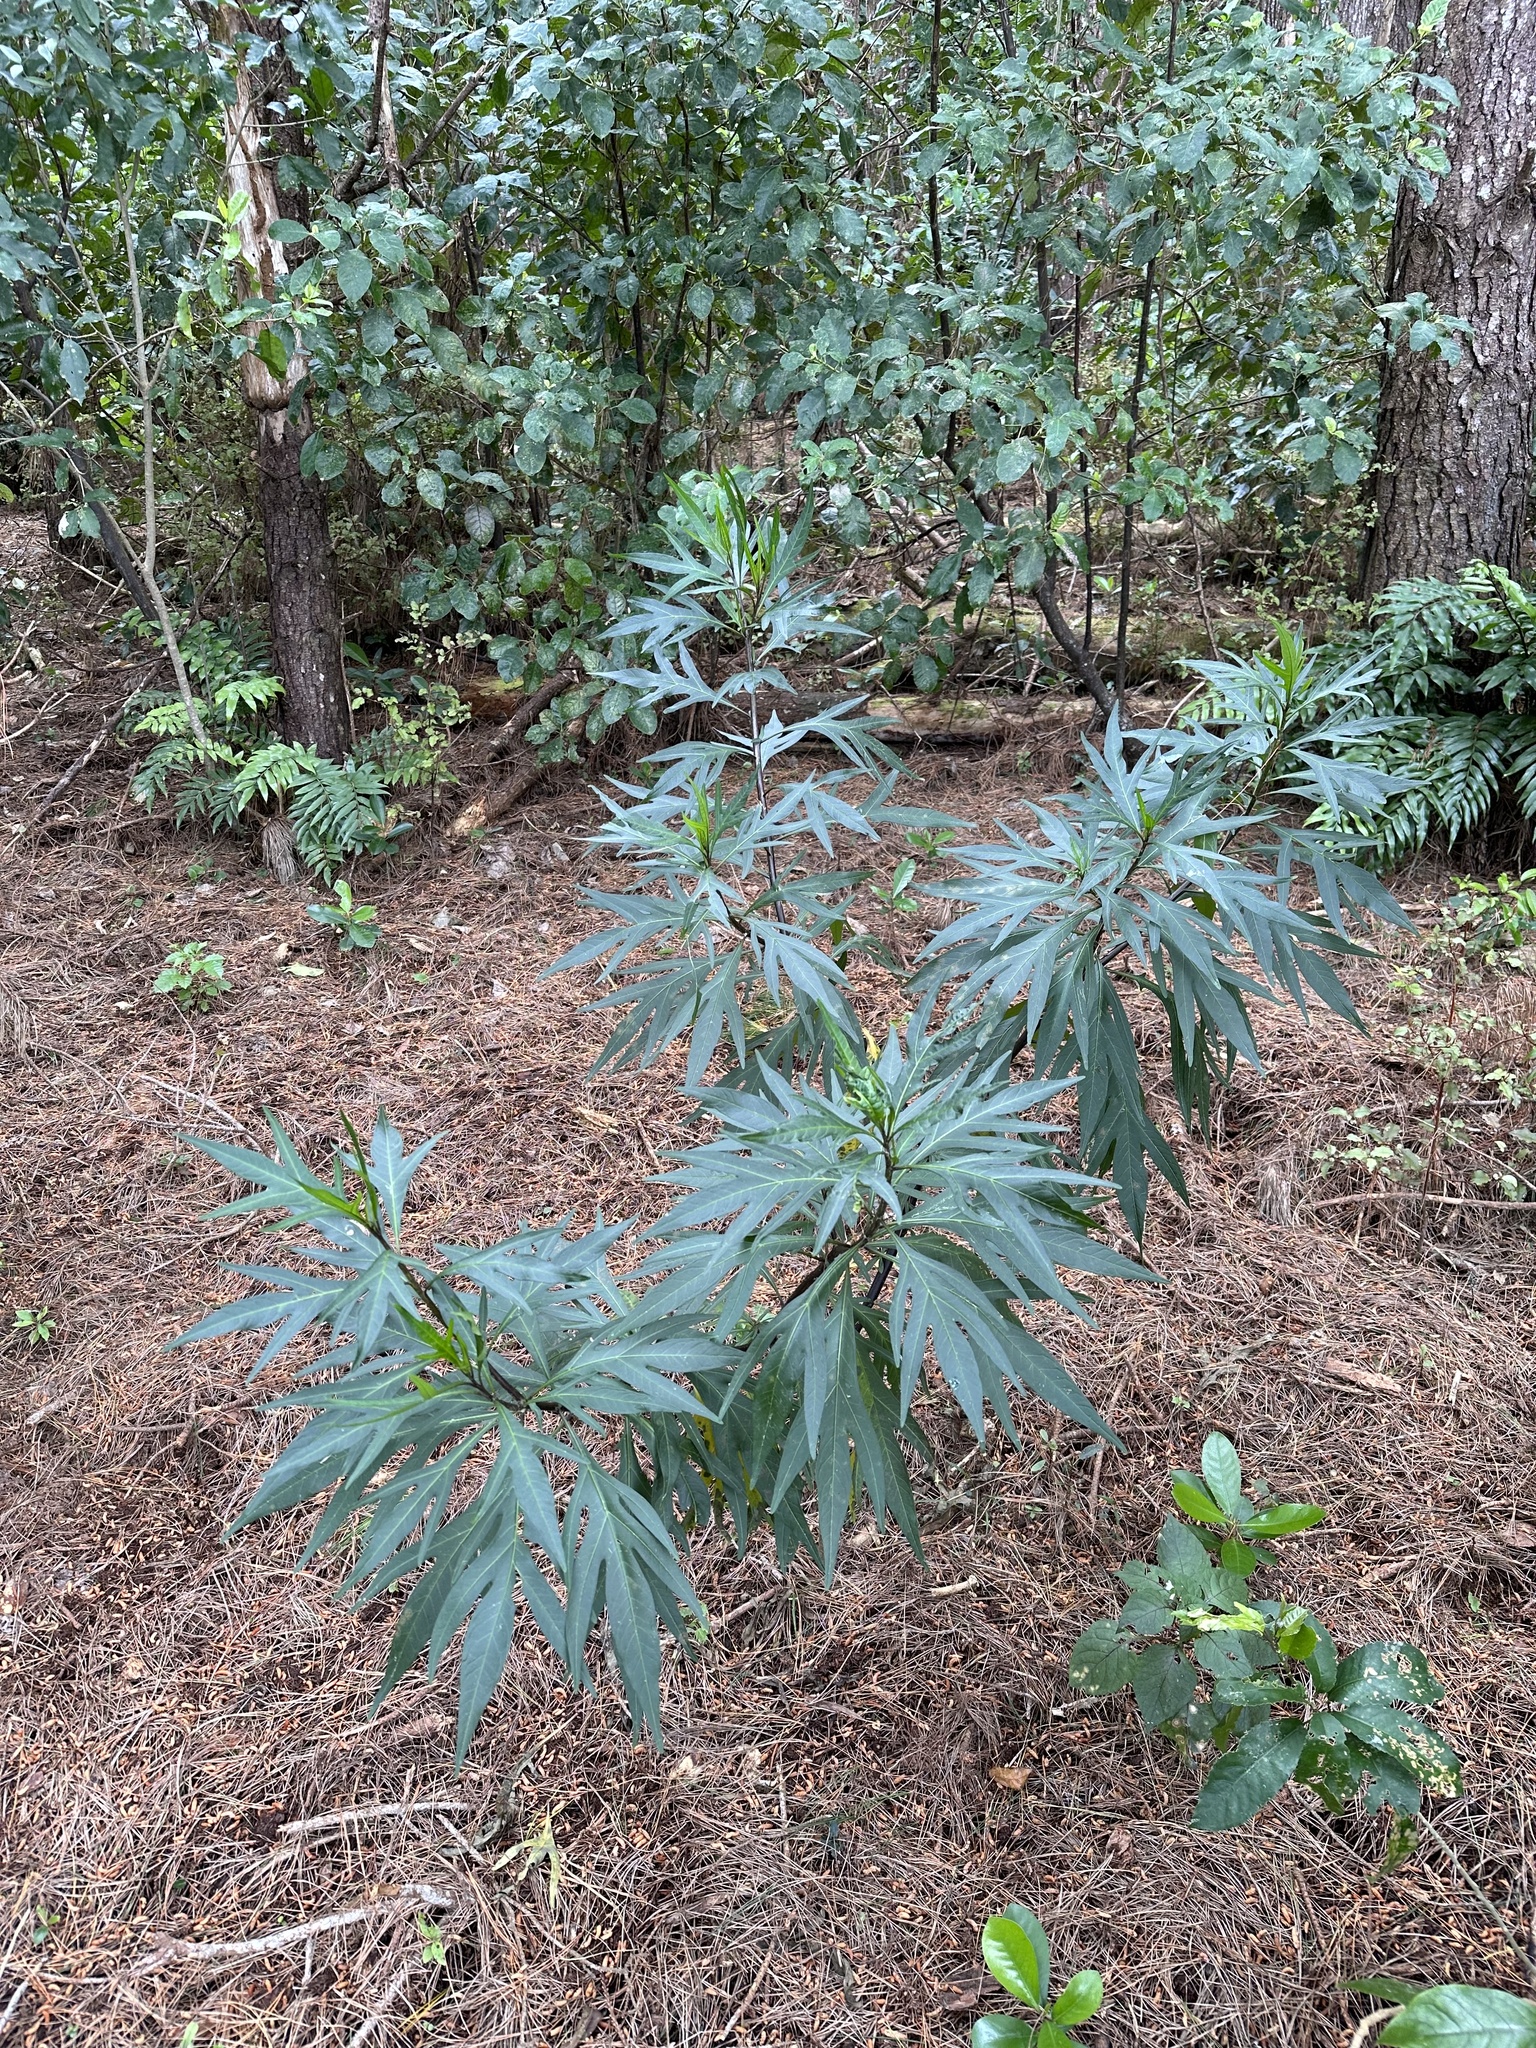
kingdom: Plantae
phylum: Tracheophyta
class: Magnoliopsida
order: Solanales
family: Solanaceae
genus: Solanum
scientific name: Solanum
